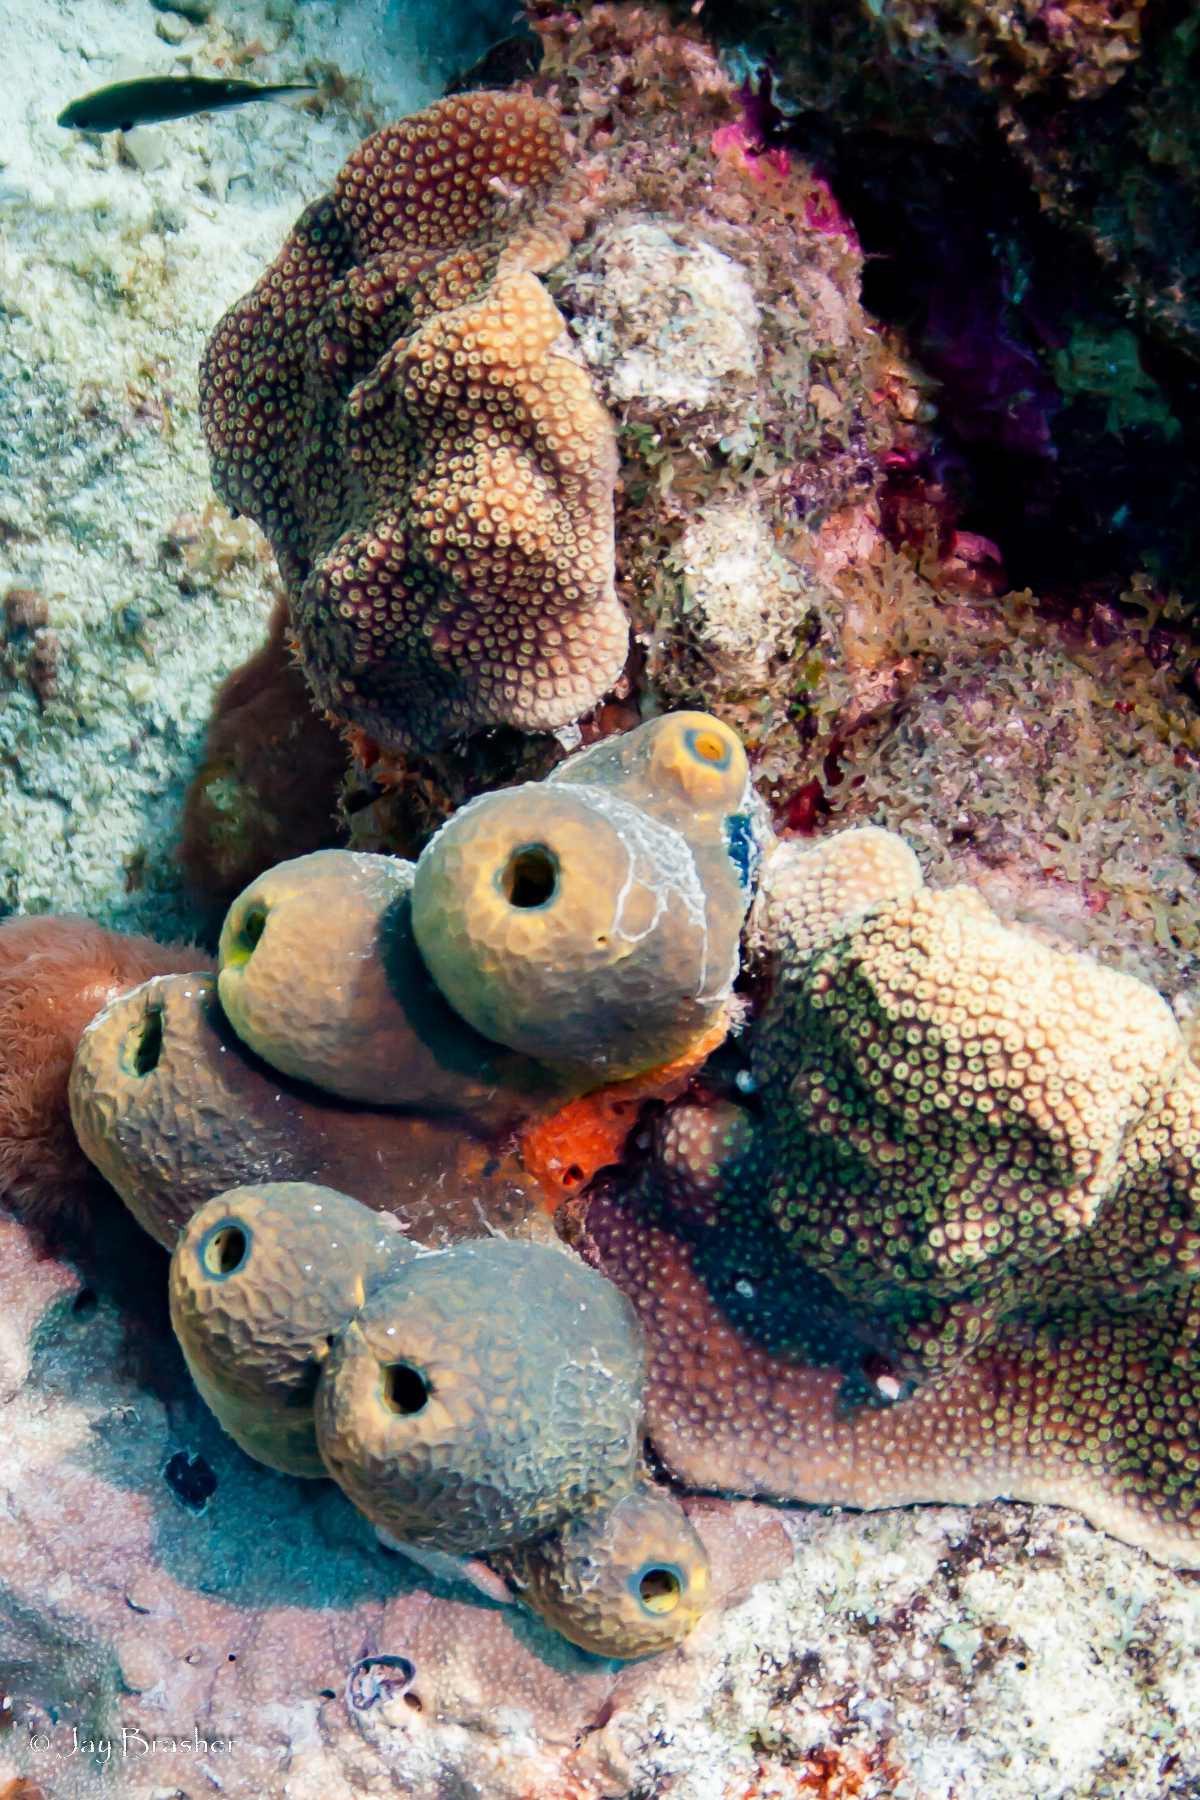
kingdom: Animalia
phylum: Porifera
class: Demospongiae
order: Verongiida
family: Aplysinidae
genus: Verongula
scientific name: Verongula reiswigi
